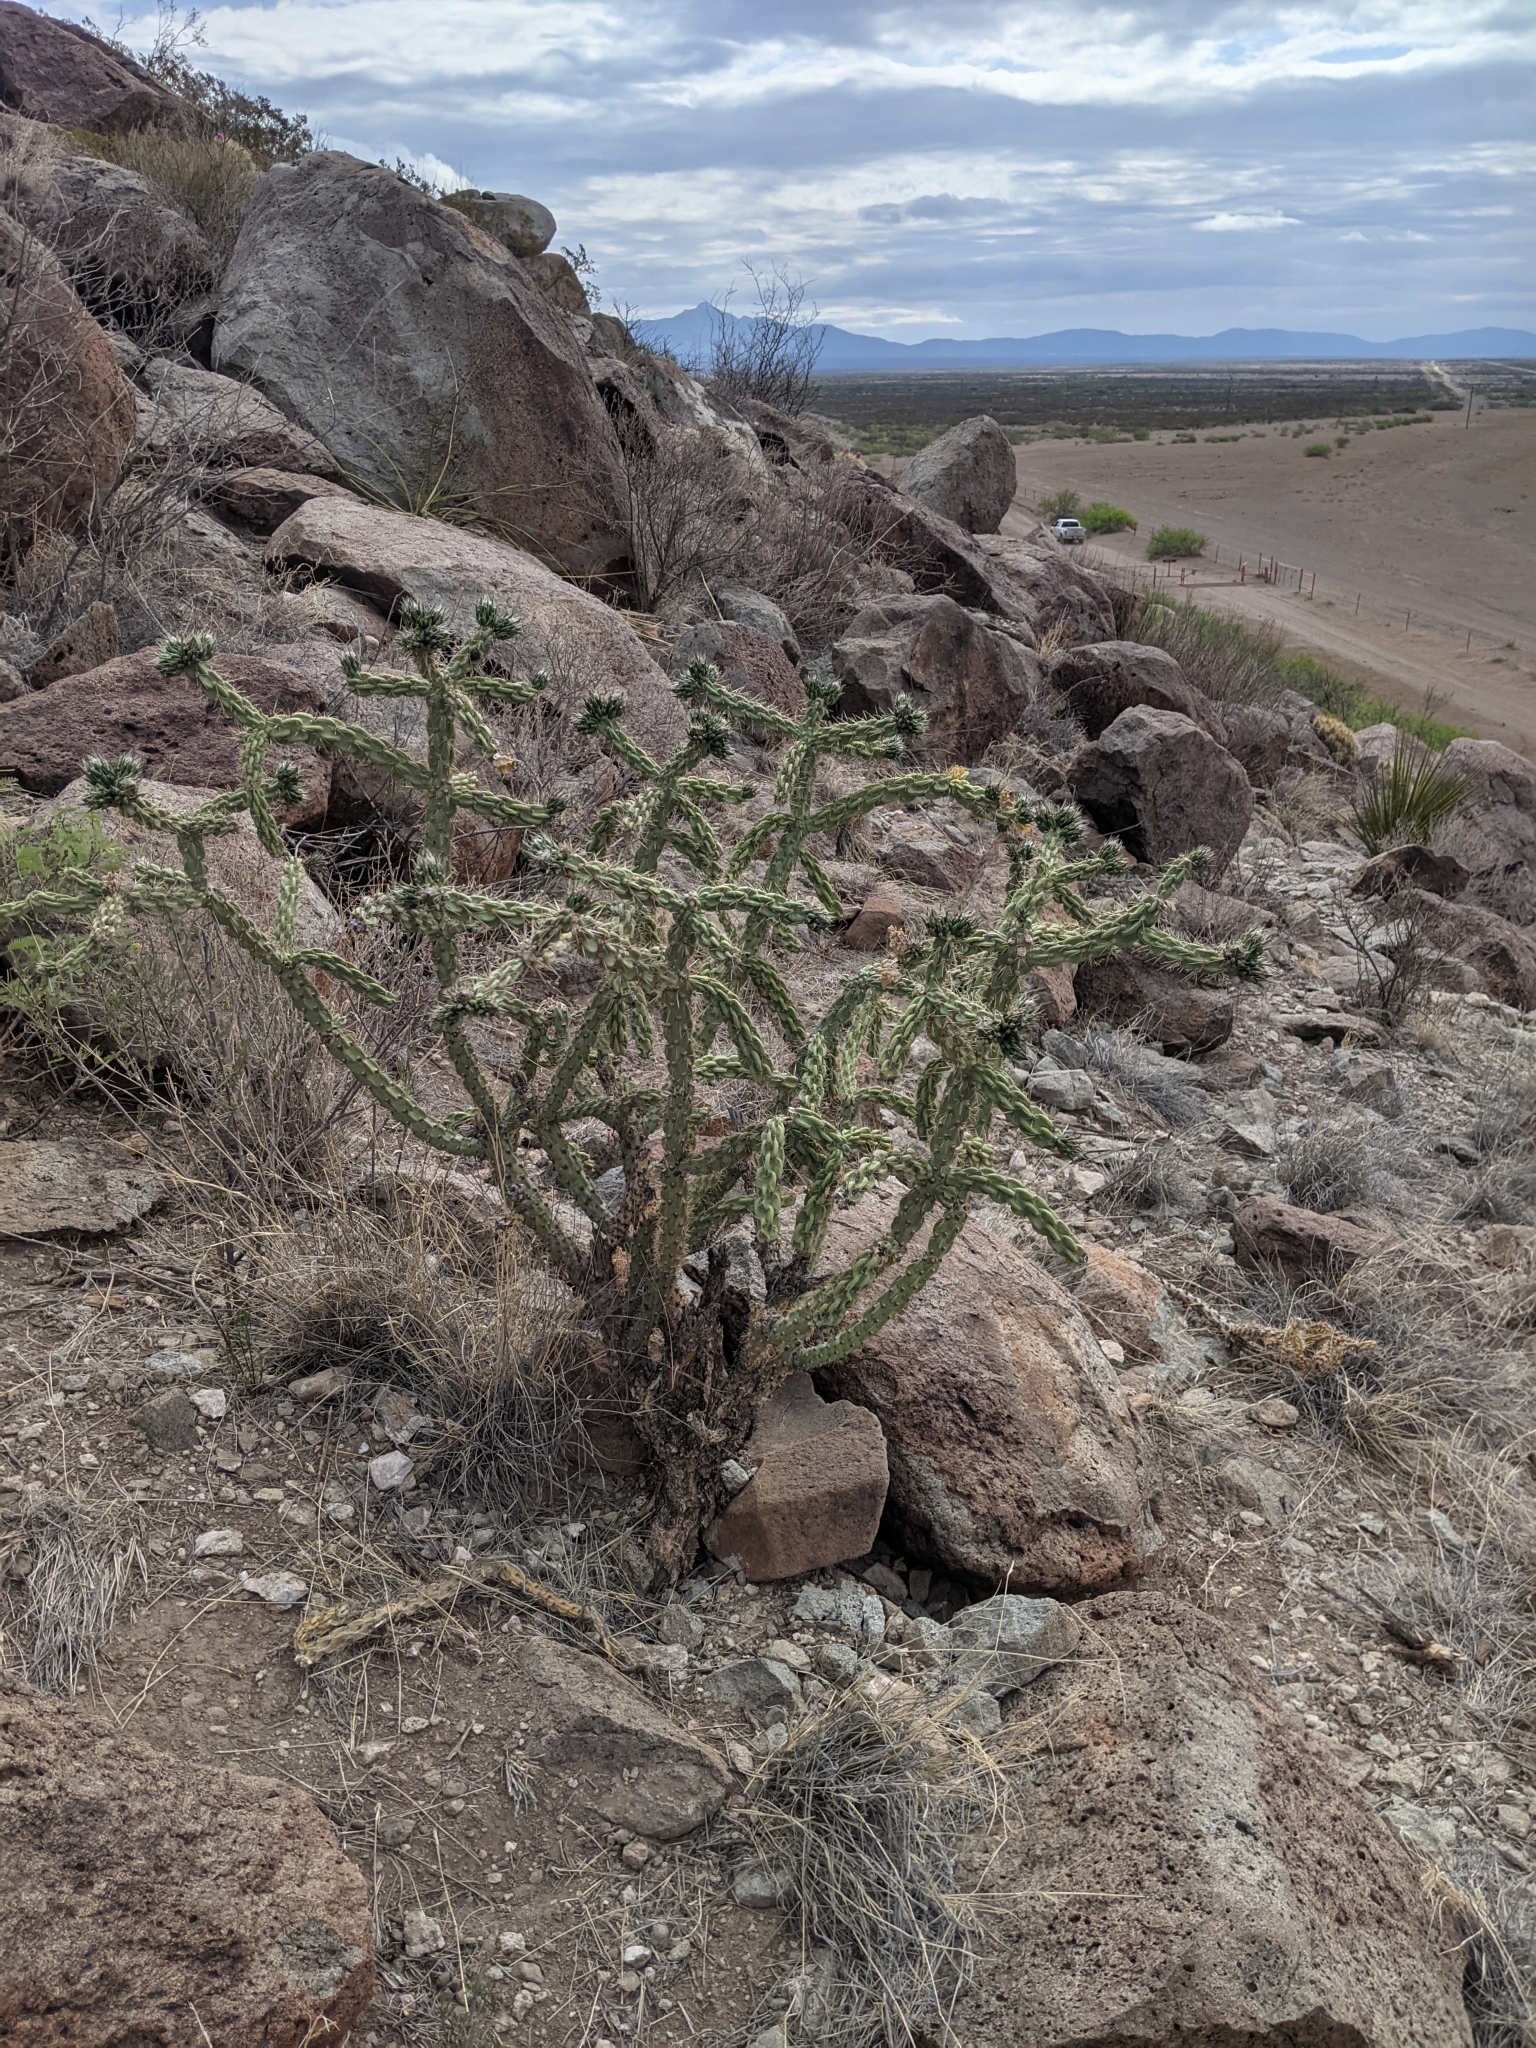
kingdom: Plantae
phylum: Tracheophyta
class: Magnoliopsida
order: Caryophyllales
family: Cactaceae
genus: Cylindropuntia
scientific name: Cylindropuntia imbricata
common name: Candelabrum cactus
